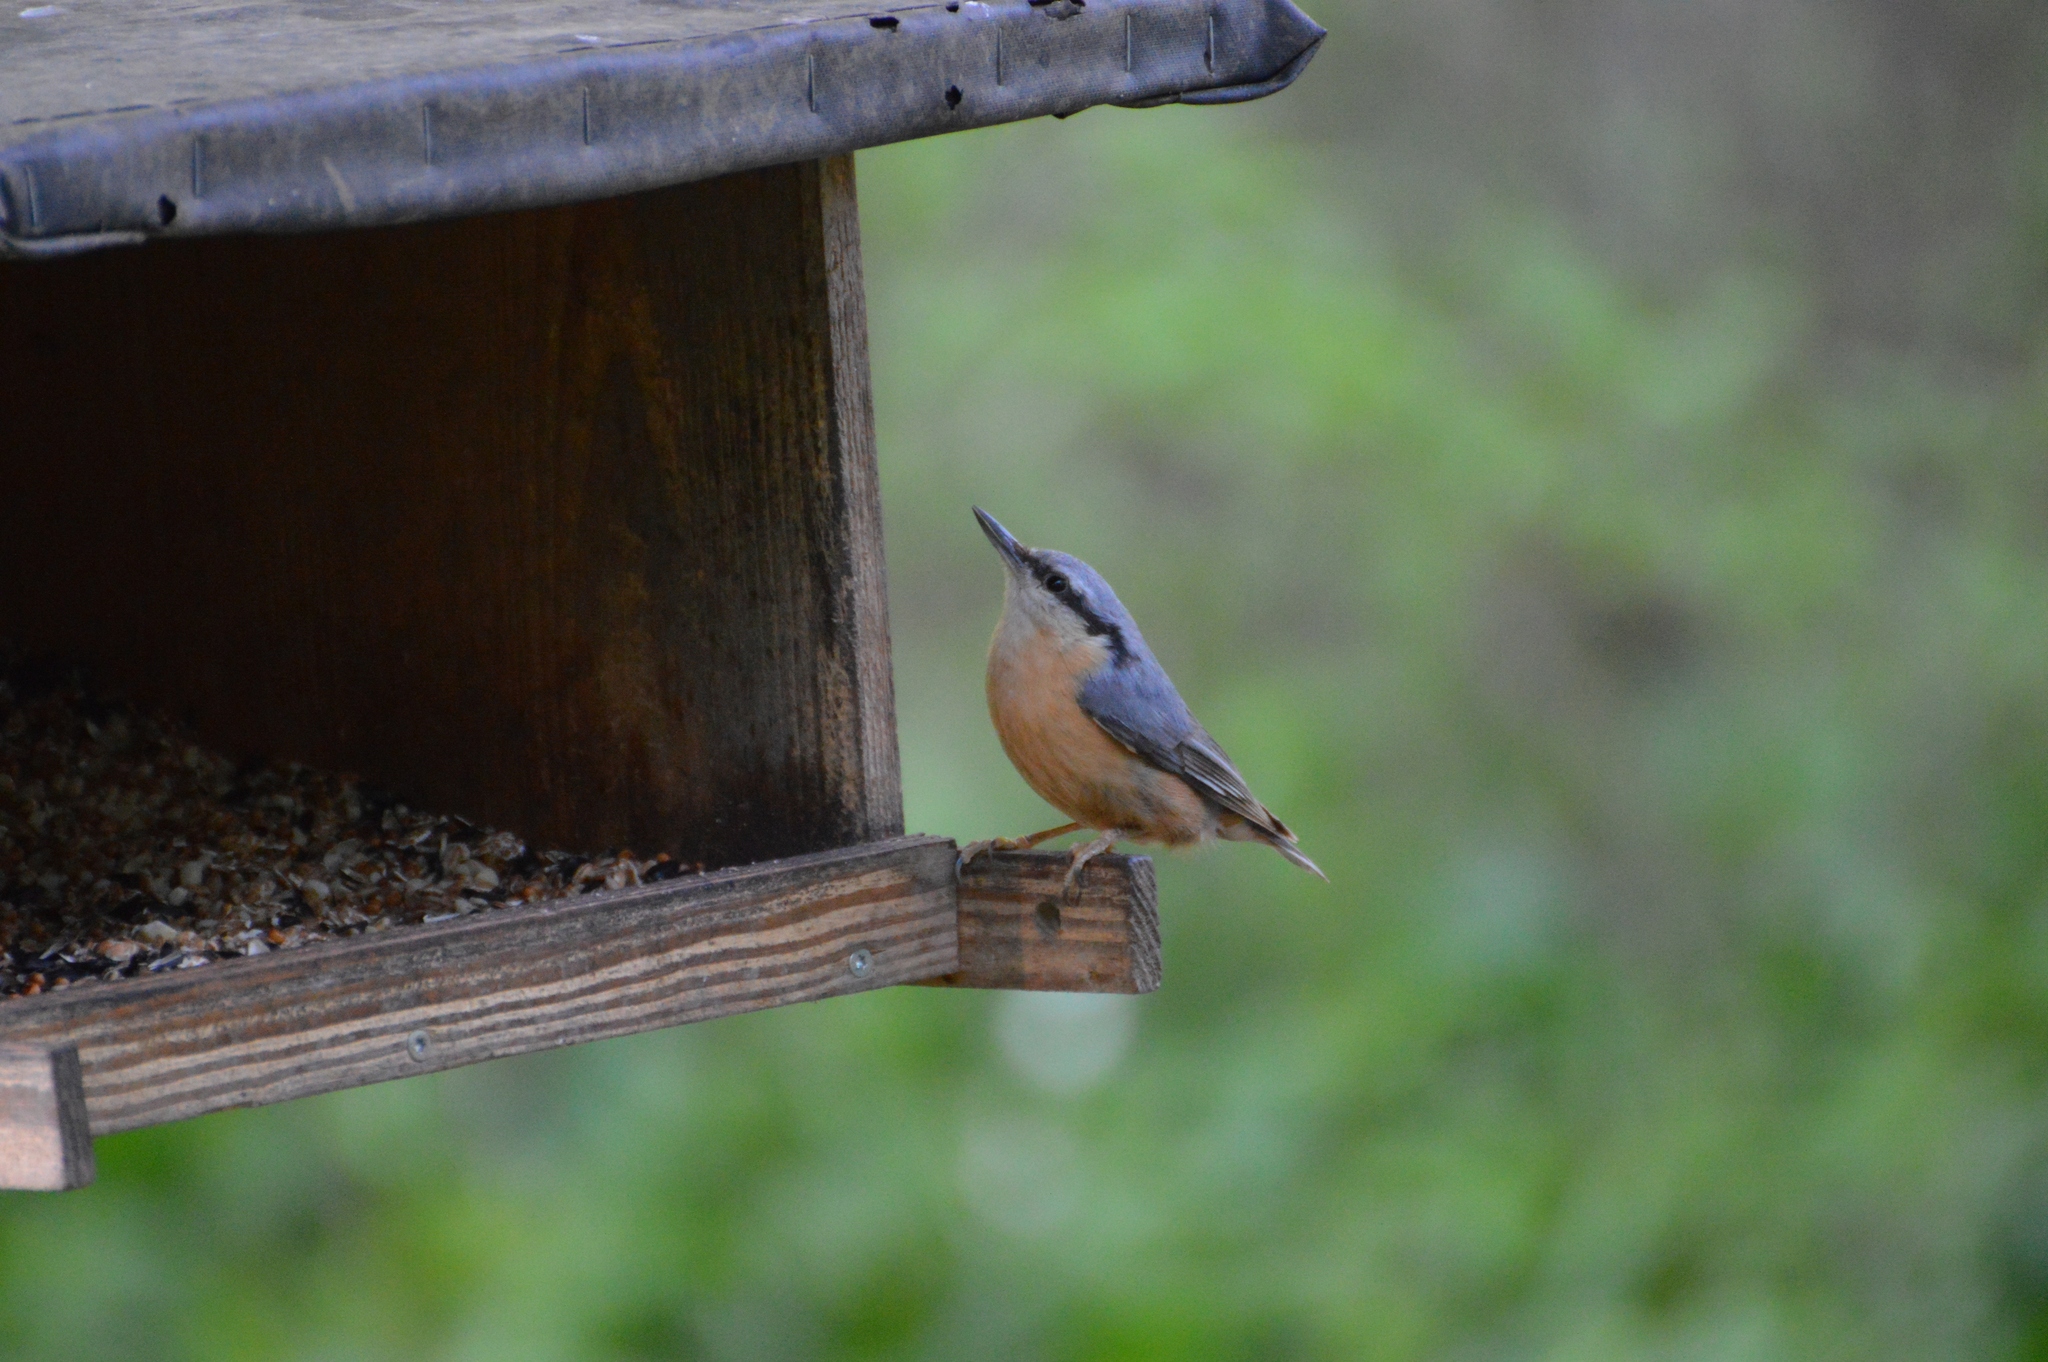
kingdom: Animalia
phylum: Chordata
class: Aves
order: Passeriformes
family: Sittidae
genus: Sitta
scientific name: Sitta europaea
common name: Eurasian nuthatch
